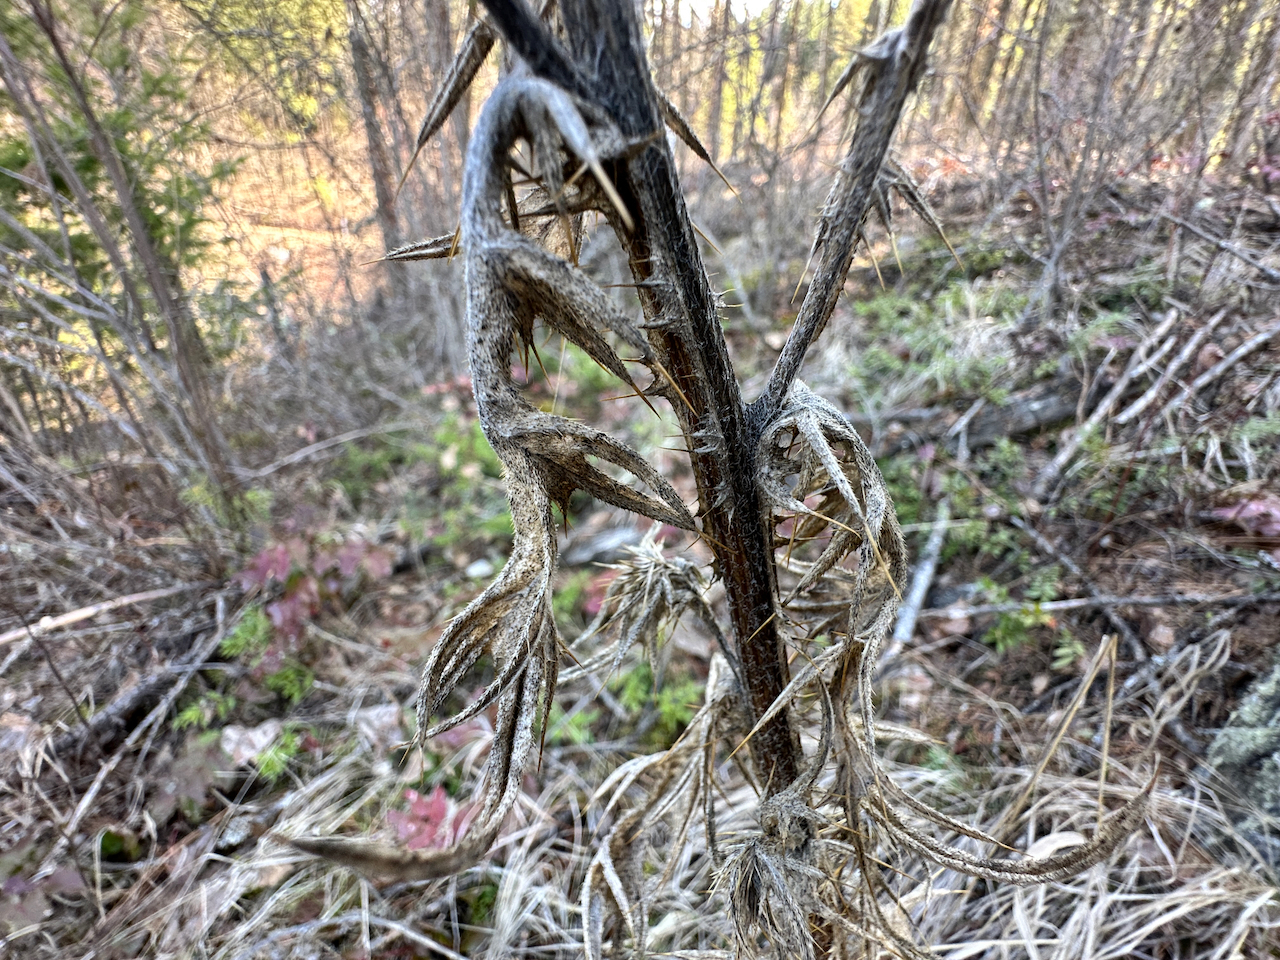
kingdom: Plantae
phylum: Tracheophyta
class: Magnoliopsida
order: Asterales
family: Asteraceae
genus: Cirsium
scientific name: Cirsium vulgare
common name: Bull thistle
